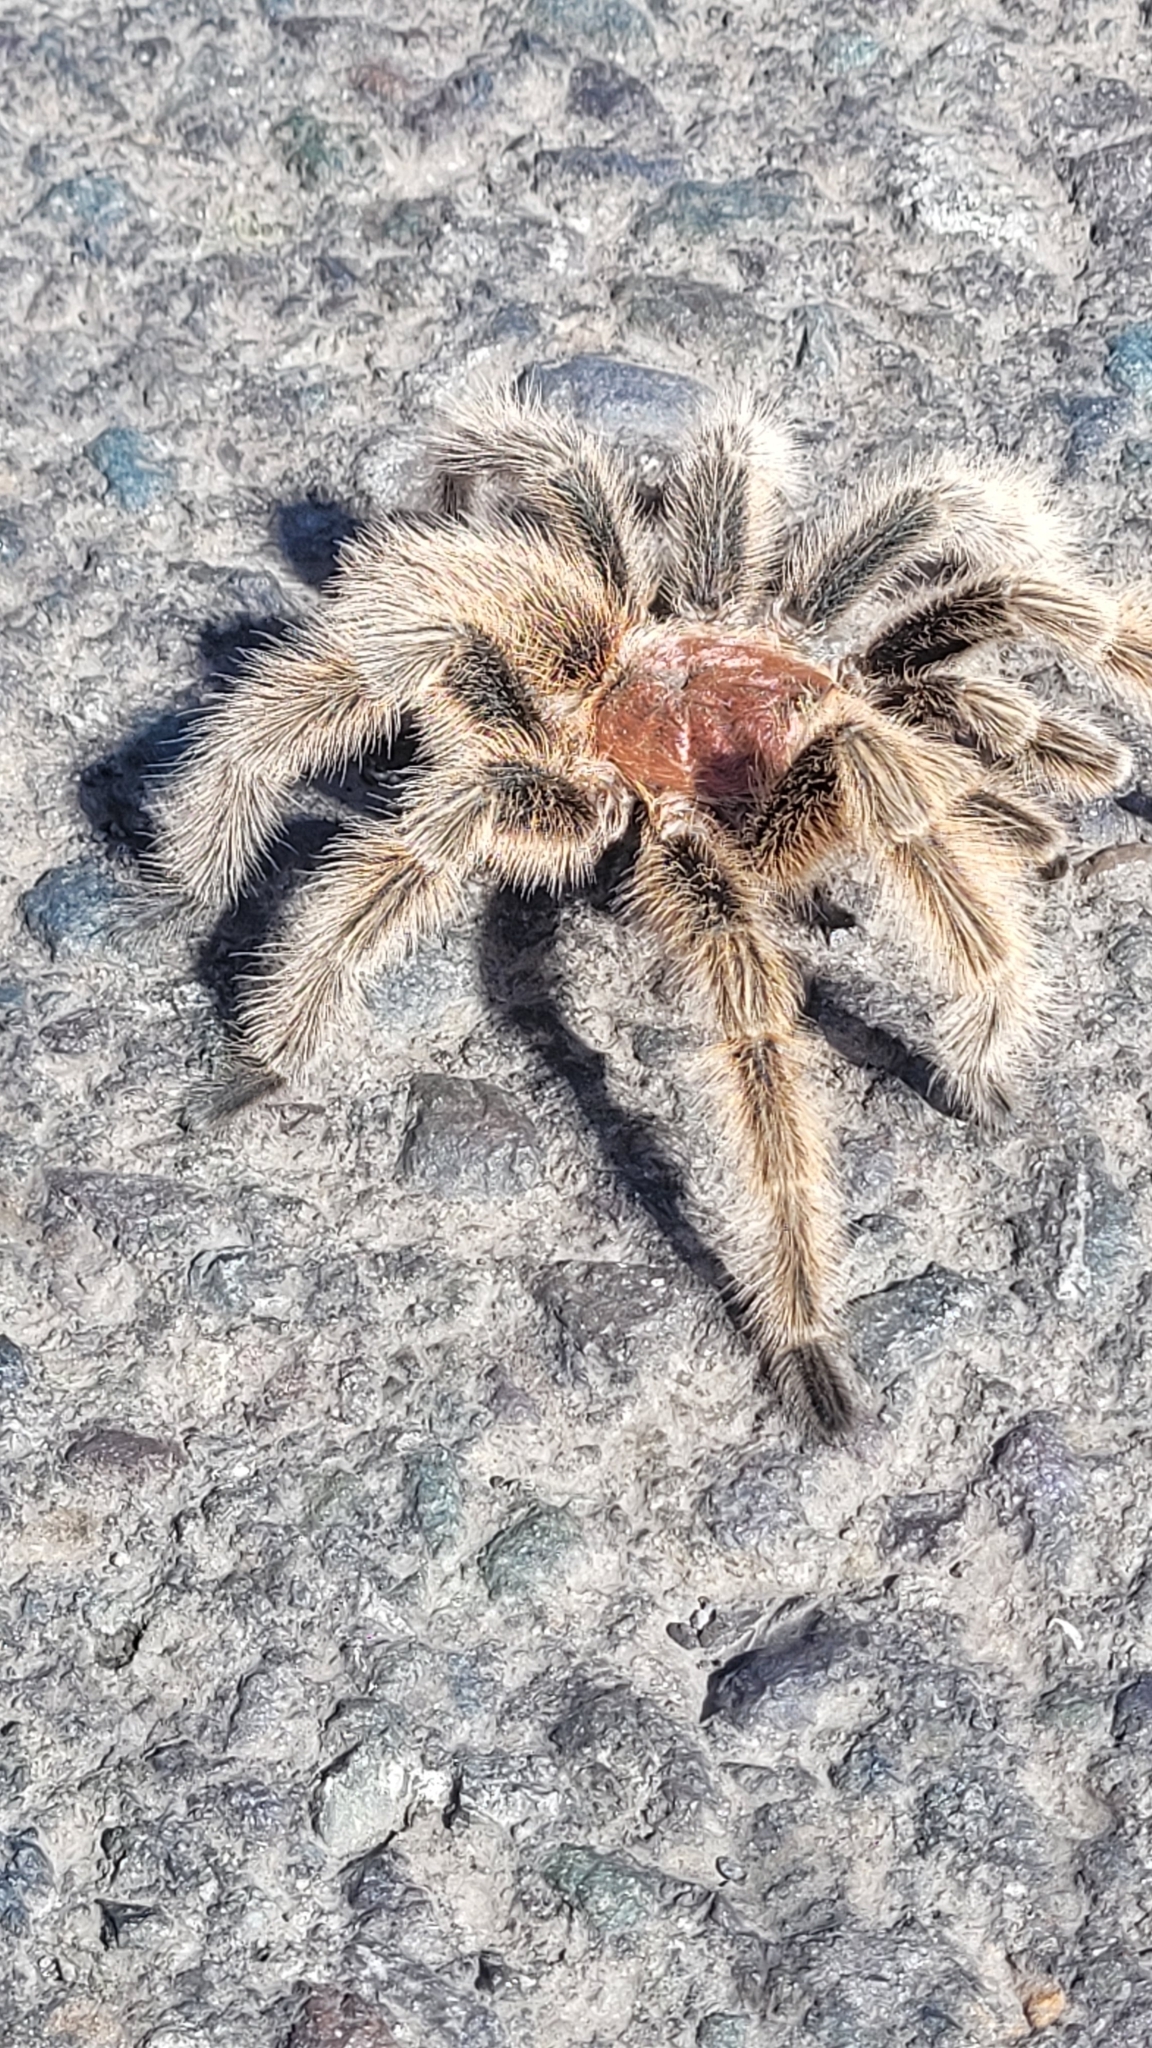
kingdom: Animalia
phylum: Arthropoda
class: Arachnida
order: Araneae
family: Theraphosidae
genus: Grammostola
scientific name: Grammostola rosea
